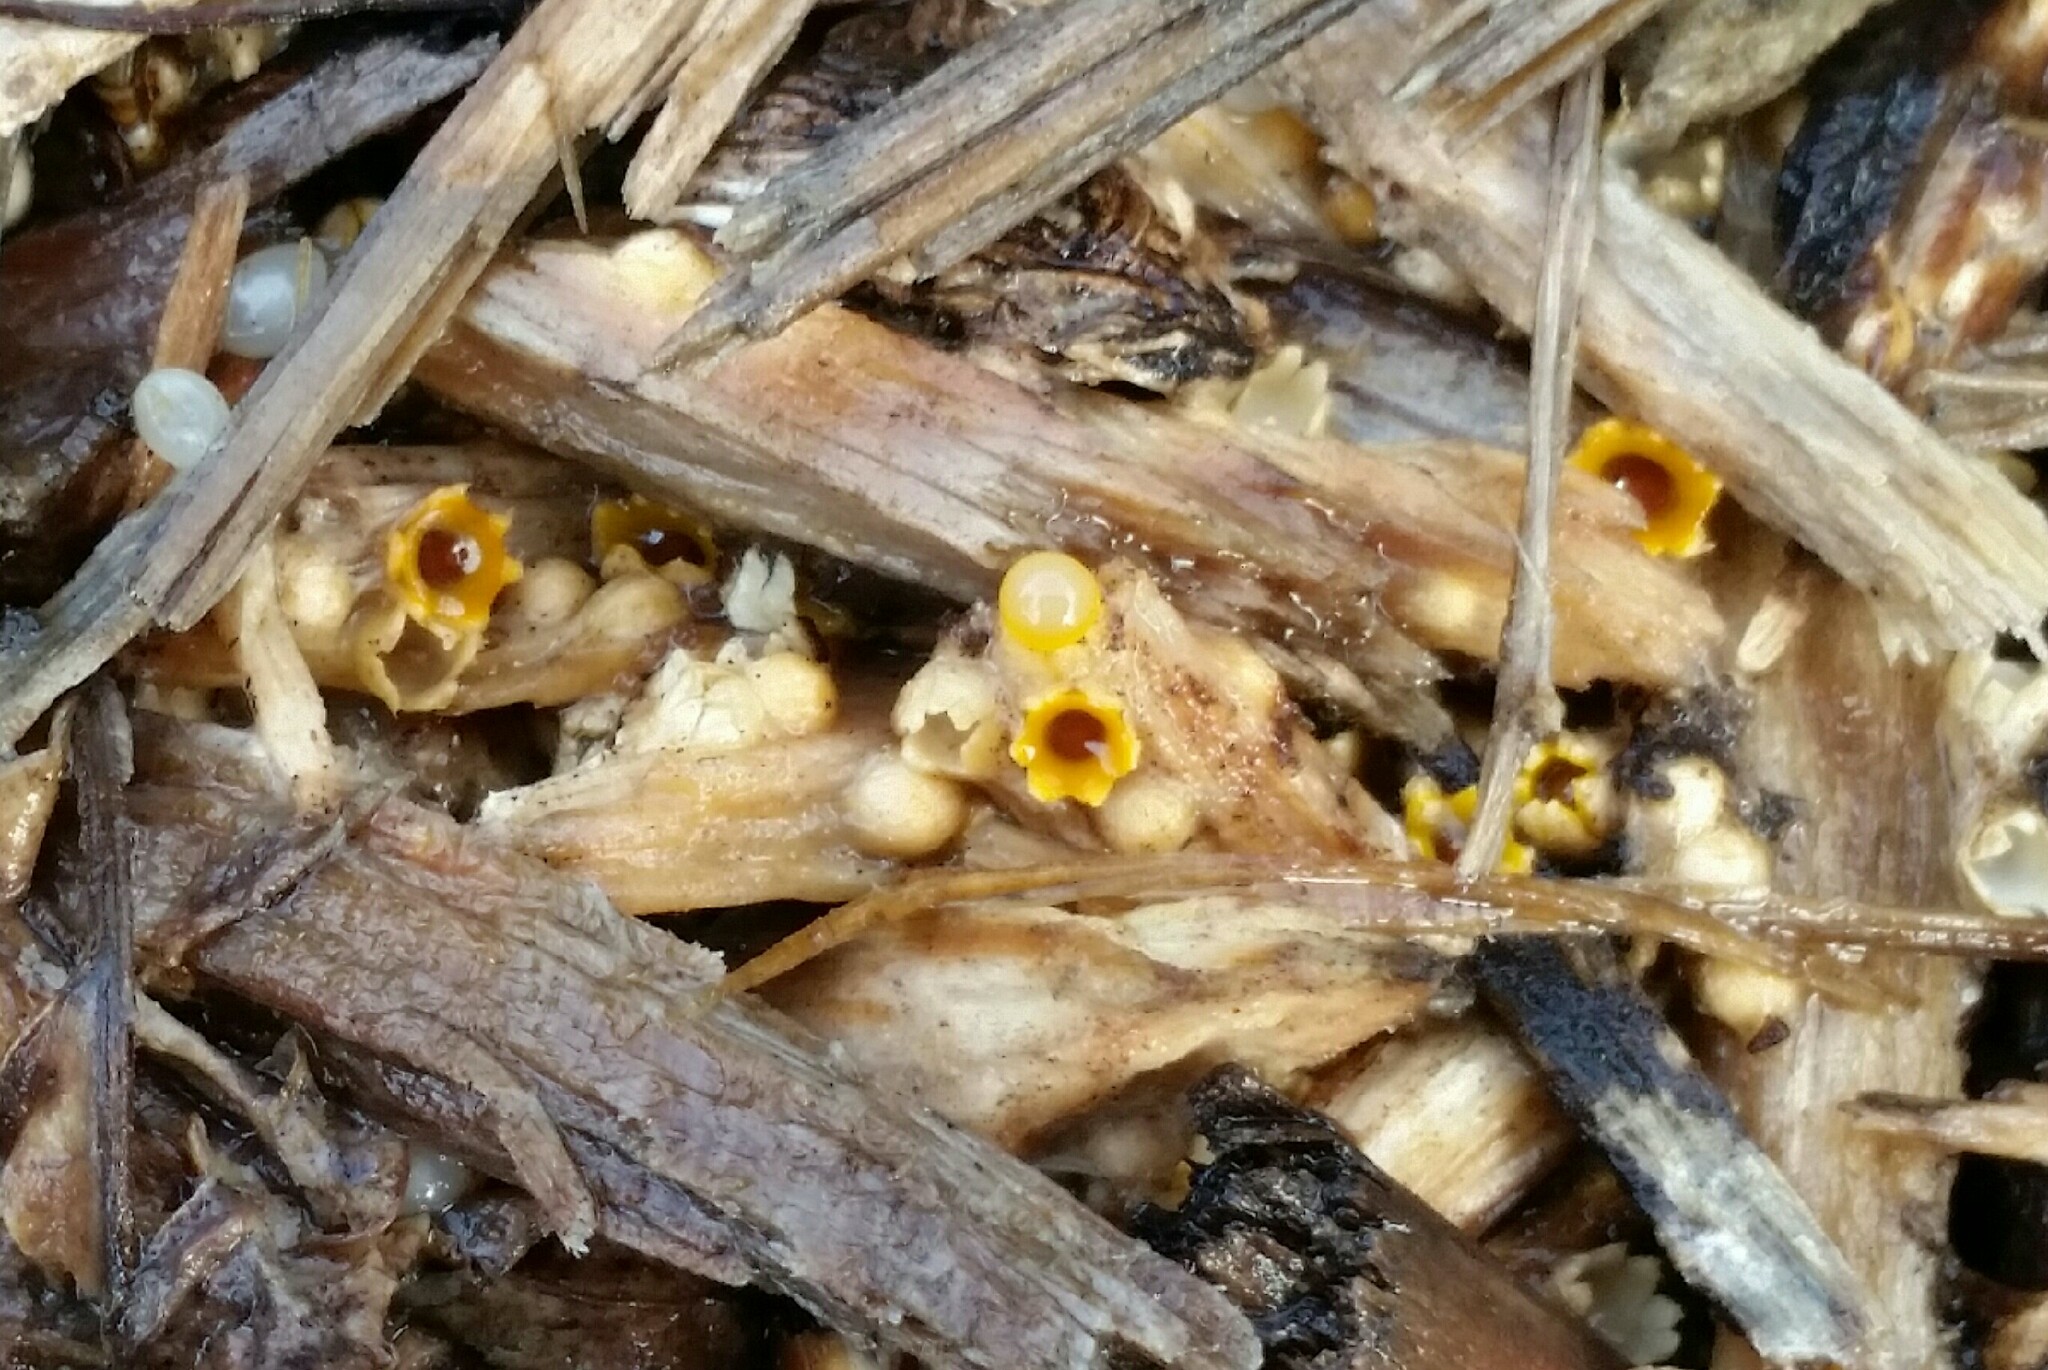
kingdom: Fungi
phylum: Basidiomycota
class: Agaricomycetes
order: Geastrales
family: Geastraceae
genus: Sphaerobolus
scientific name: Sphaerobolus stellatus
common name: Cannon fungus
